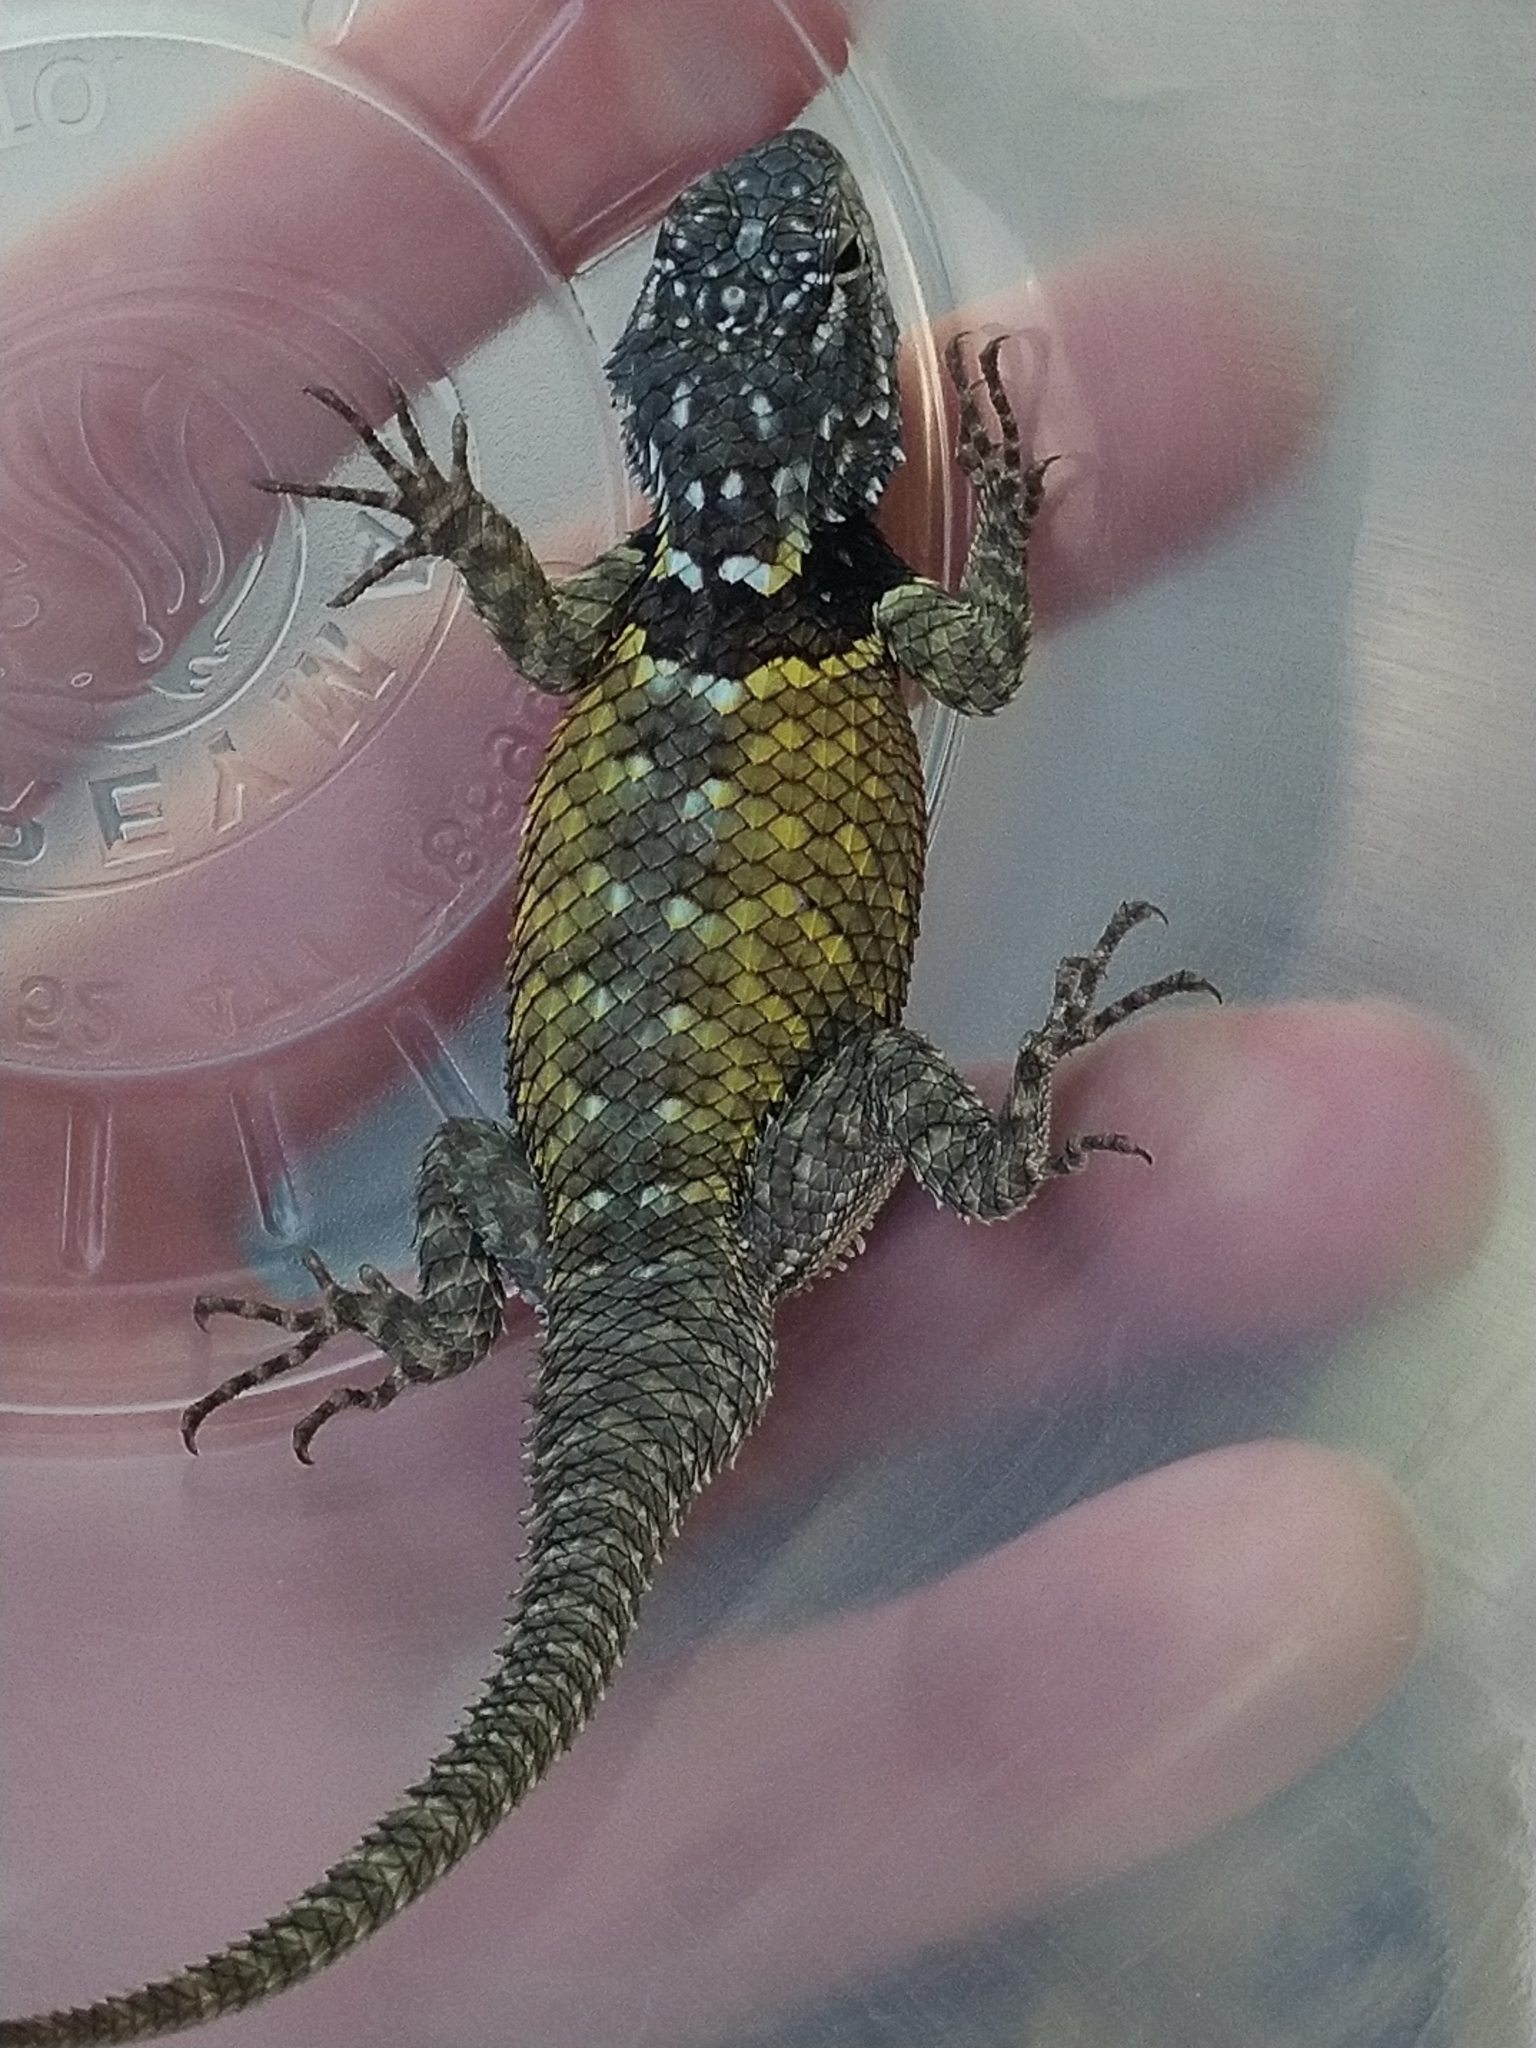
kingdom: Animalia
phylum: Chordata
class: Squamata
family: Phrynosomatidae
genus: Sceloporus
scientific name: Sceloporus torquatus
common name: Central plateau torquate lizard [melanogaster]
